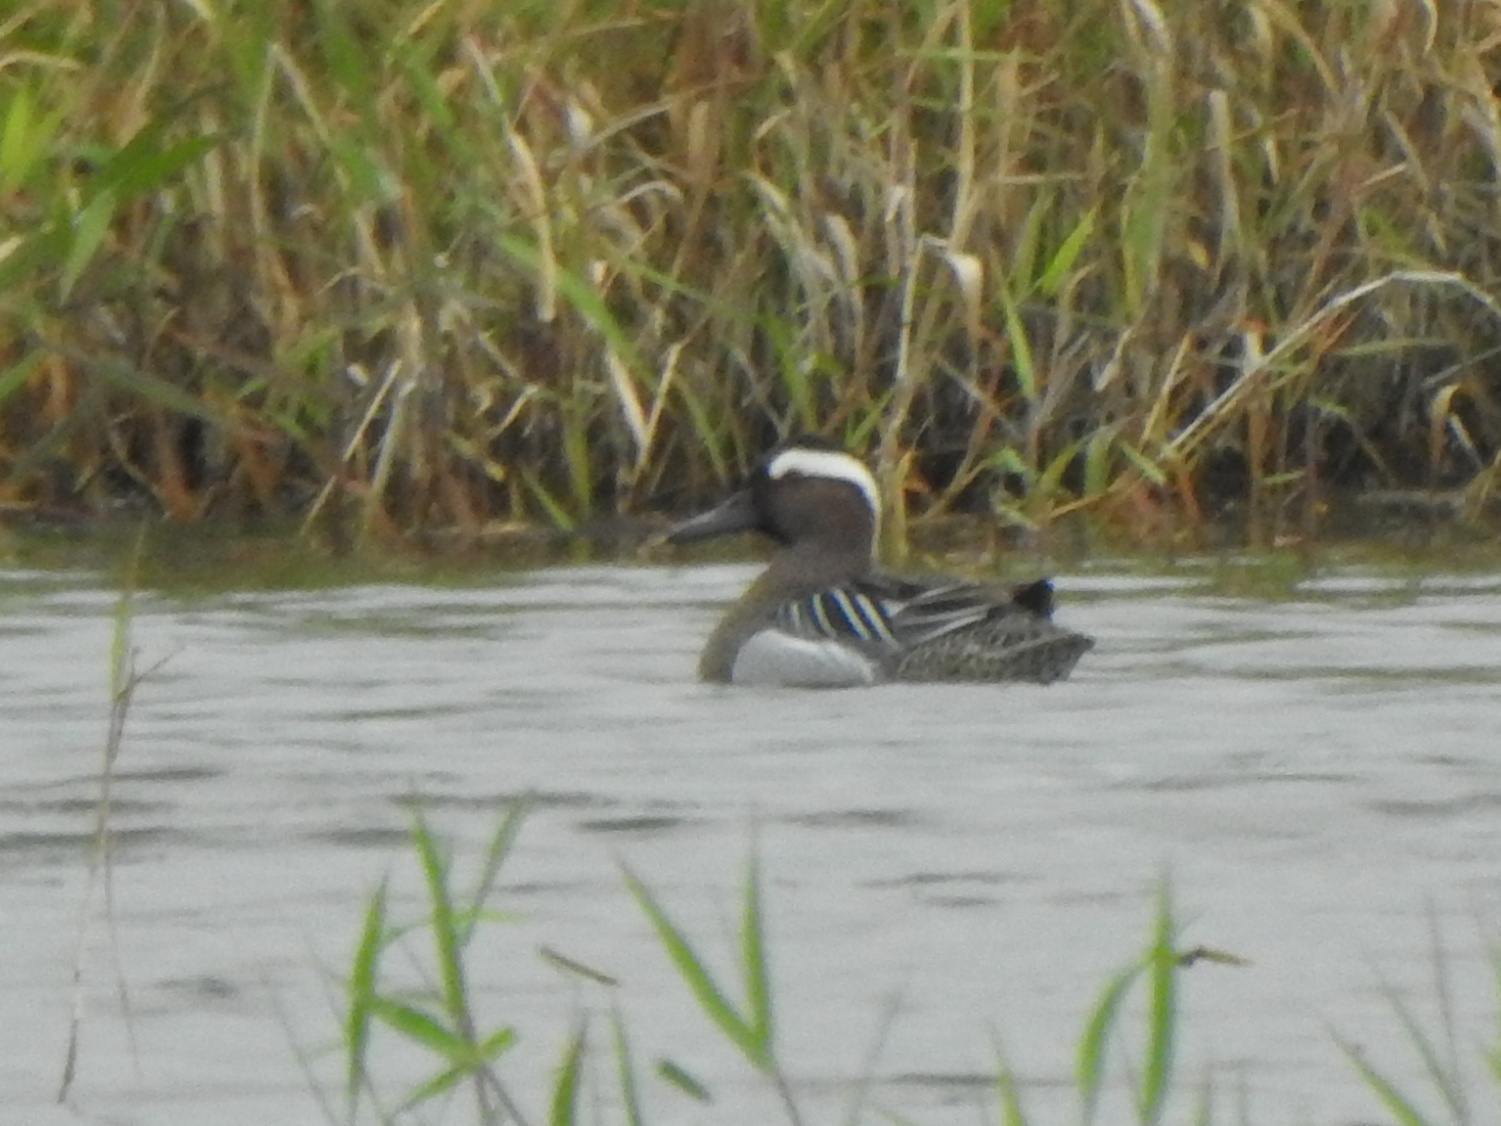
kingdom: Animalia
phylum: Chordata
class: Aves
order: Anseriformes
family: Anatidae
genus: Spatula
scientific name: Spatula querquedula
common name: Garganey
